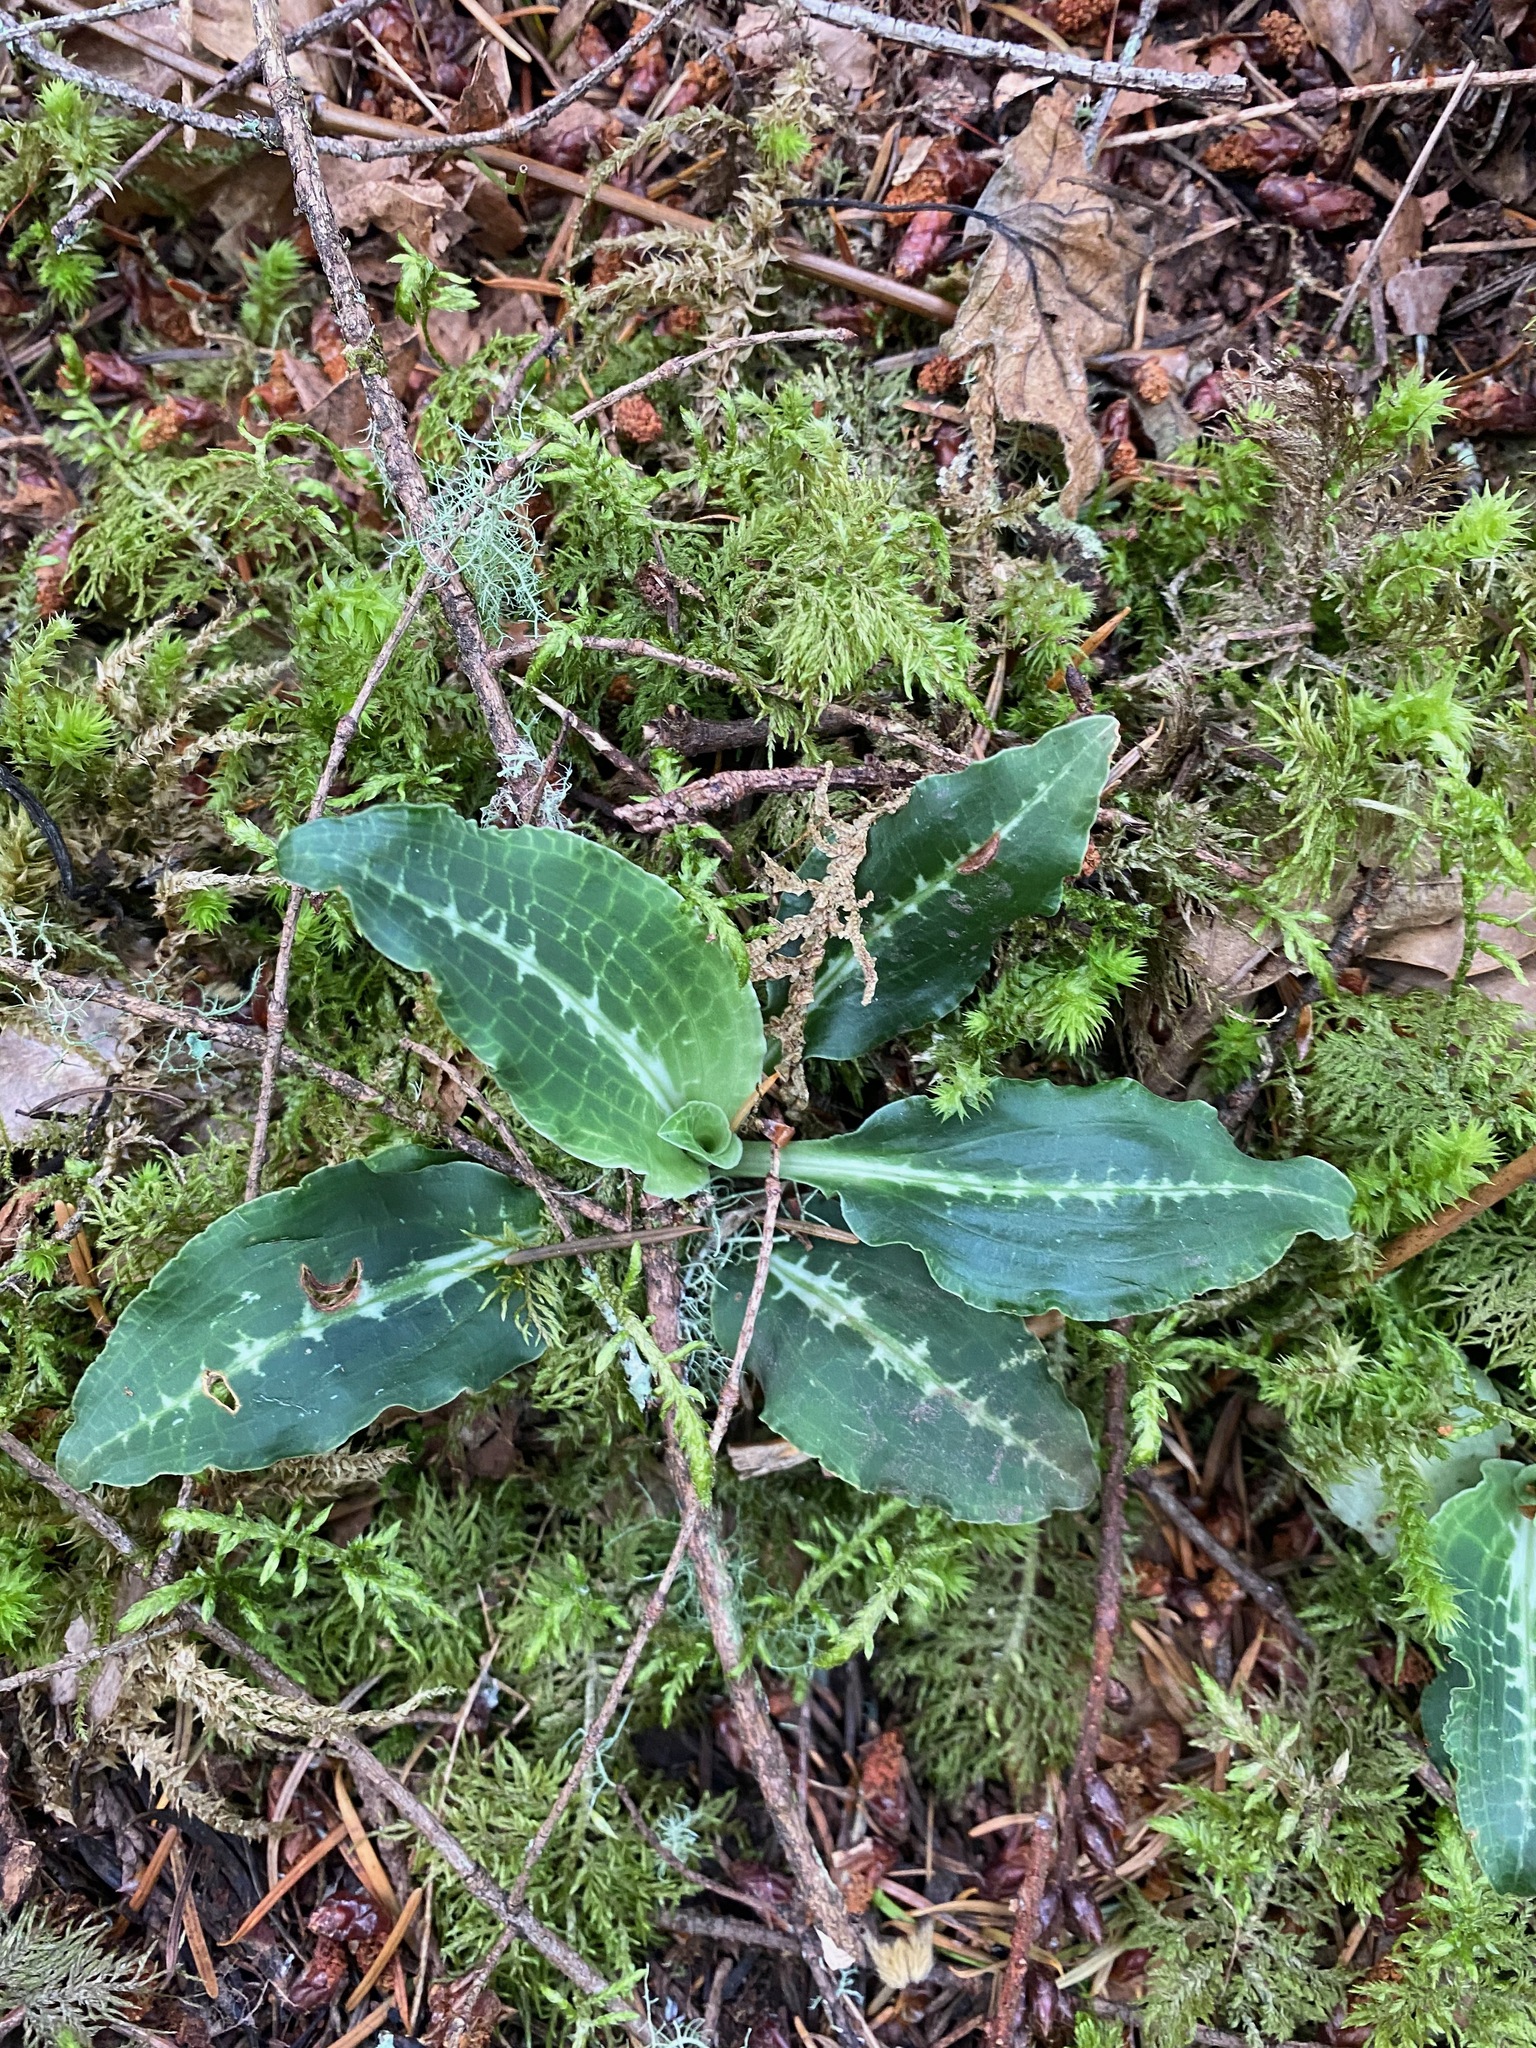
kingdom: Plantae
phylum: Tracheophyta
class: Liliopsida
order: Asparagales
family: Orchidaceae
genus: Goodyera
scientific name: Goodyera oblongifolia
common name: Giant rattlesnake-plantain
